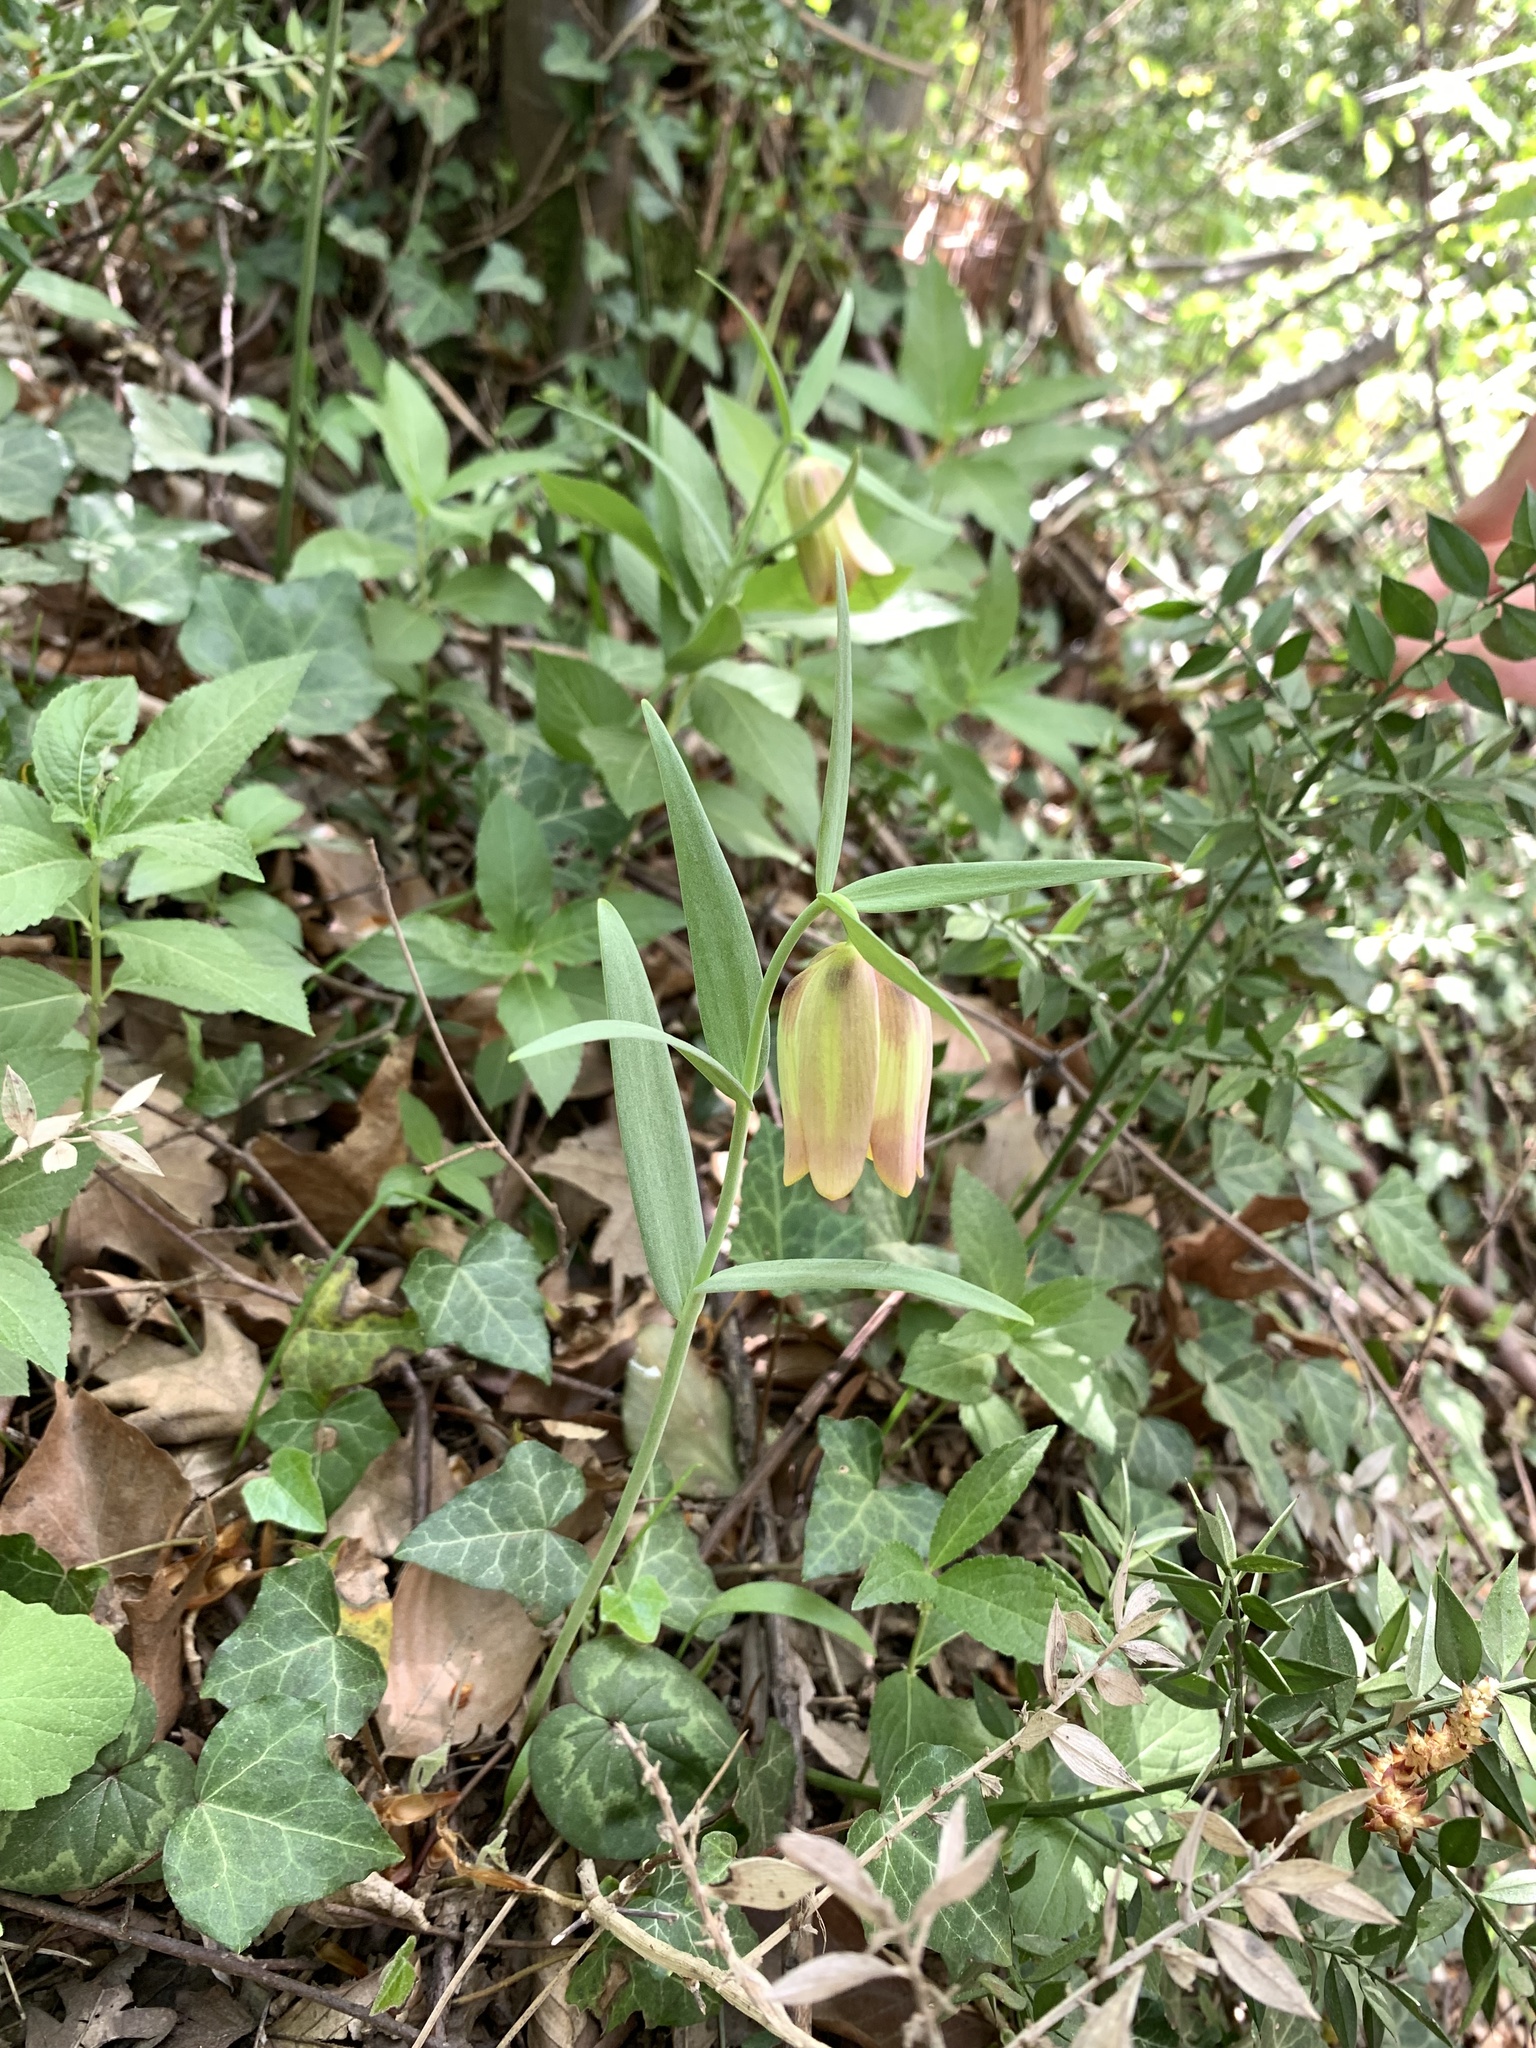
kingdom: Plantae
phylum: Tracheophyta
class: Liliopsida
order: Liliales
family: Liliaceae
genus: Fritillaria
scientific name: Fritillaria pontica
